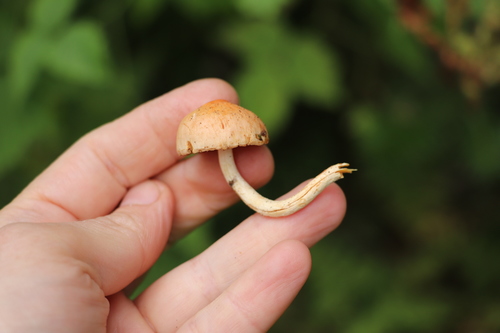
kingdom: Fungi
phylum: Basidiomycota
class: Agaricomycetes
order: Agaricales
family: Strophariaceae
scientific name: Strophariaceae
